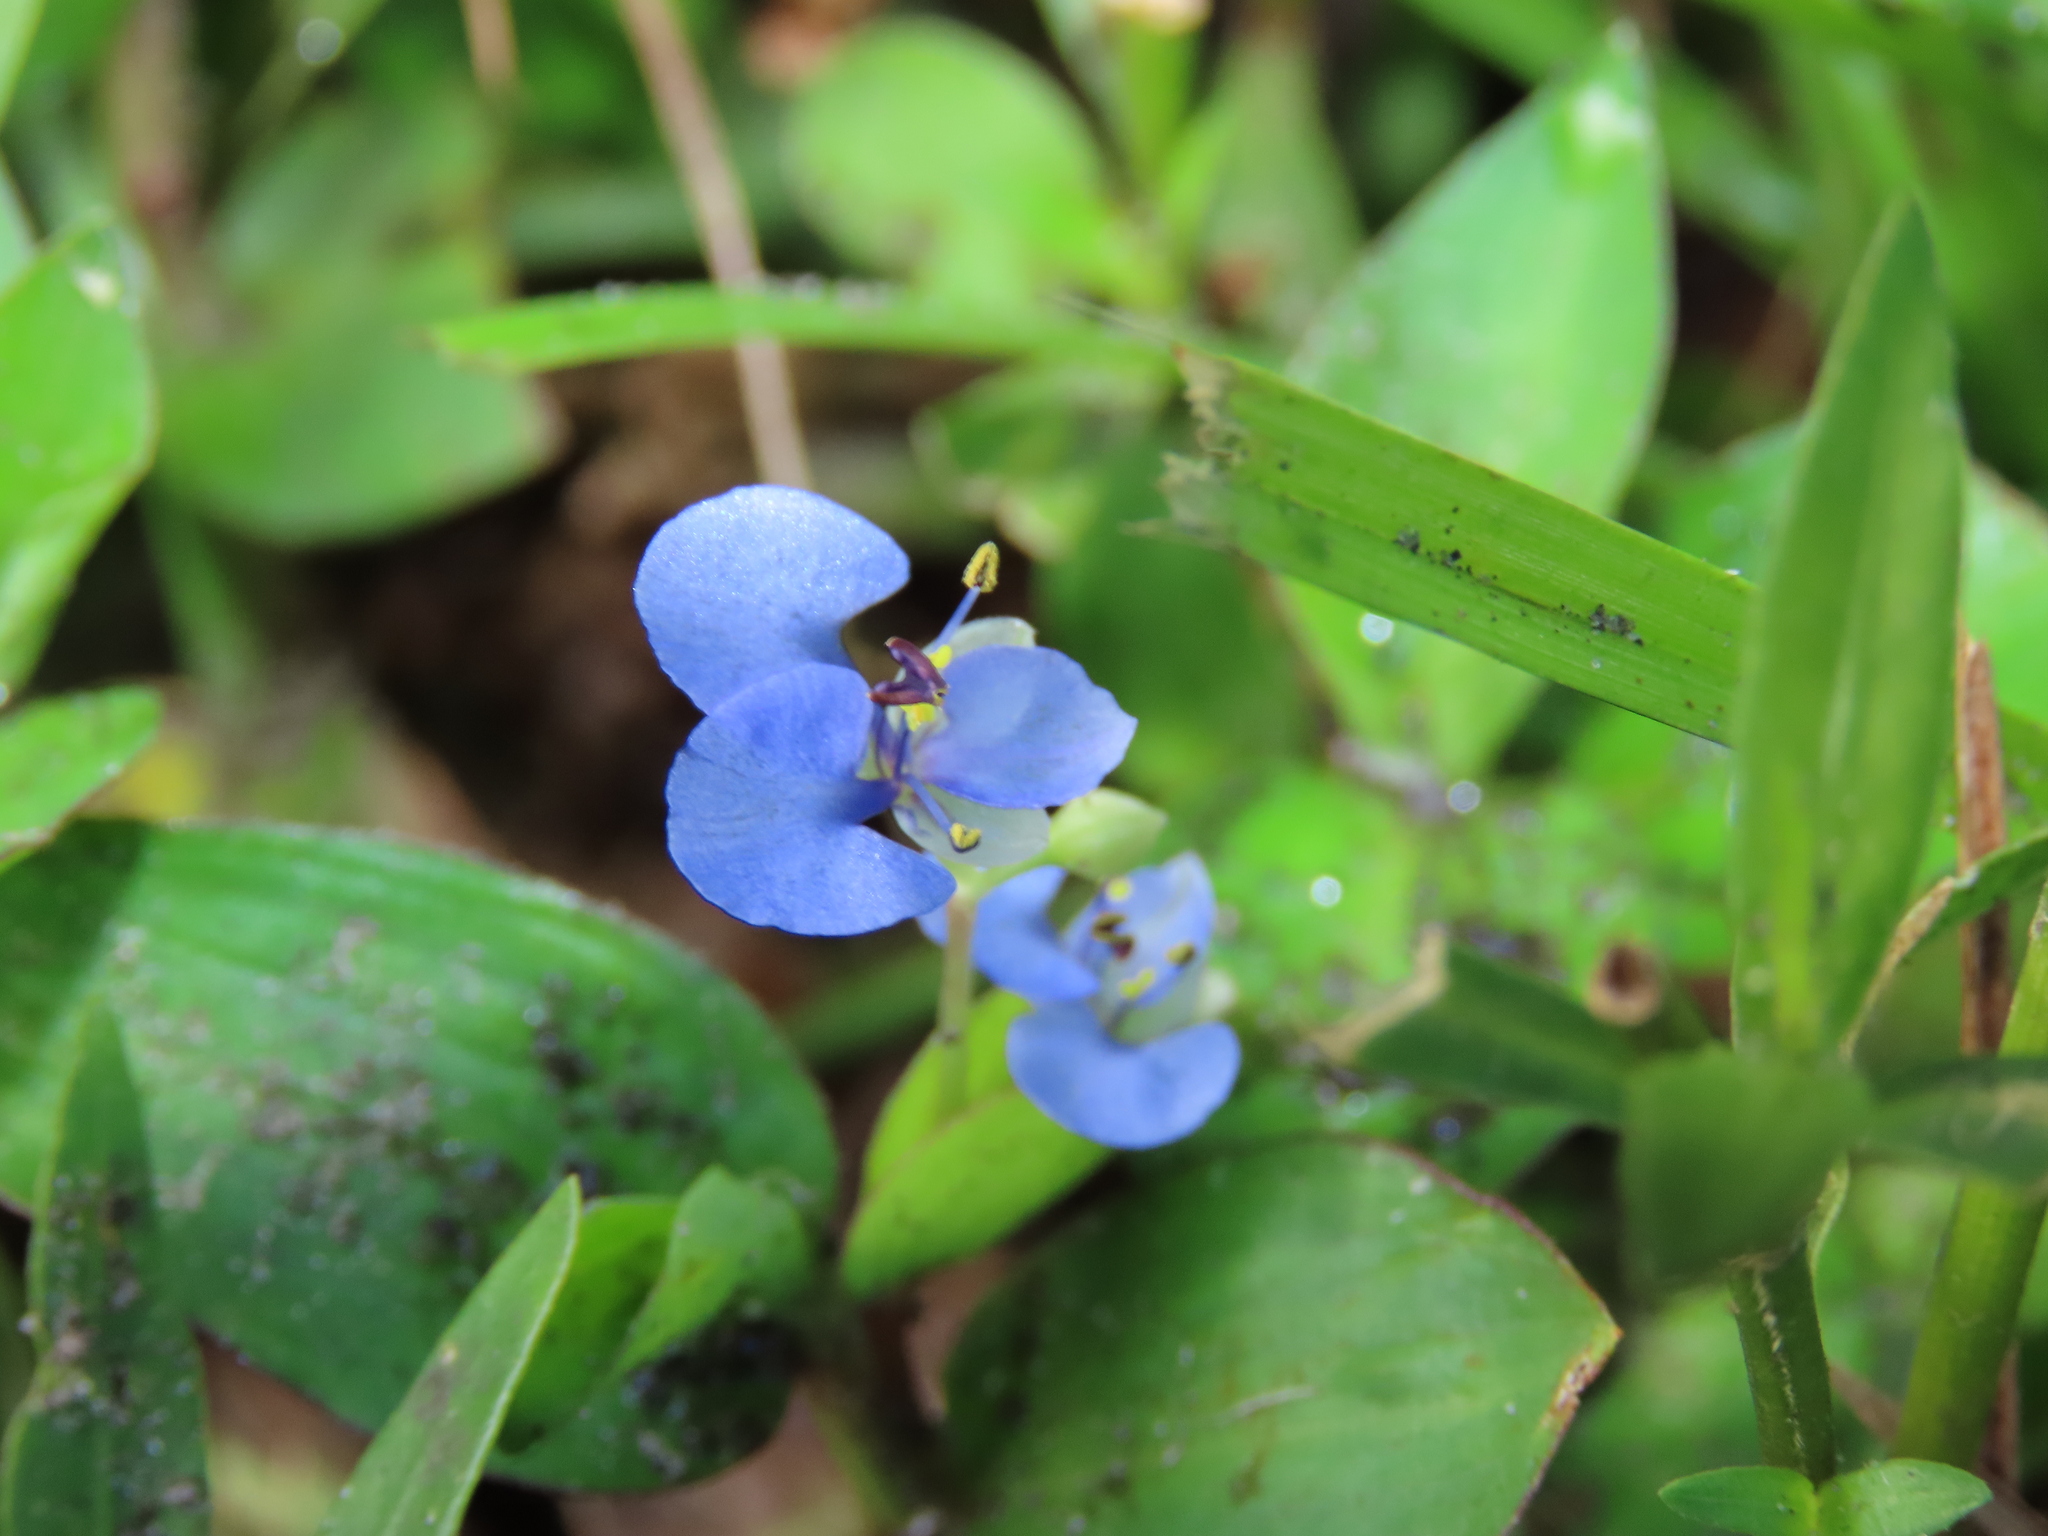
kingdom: Plantae
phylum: Tracheophyta
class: Liliopsida
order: Commelinales
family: Commelinaceae
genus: Commelina
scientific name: Commelina diffusa
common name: Climbing dayflower
